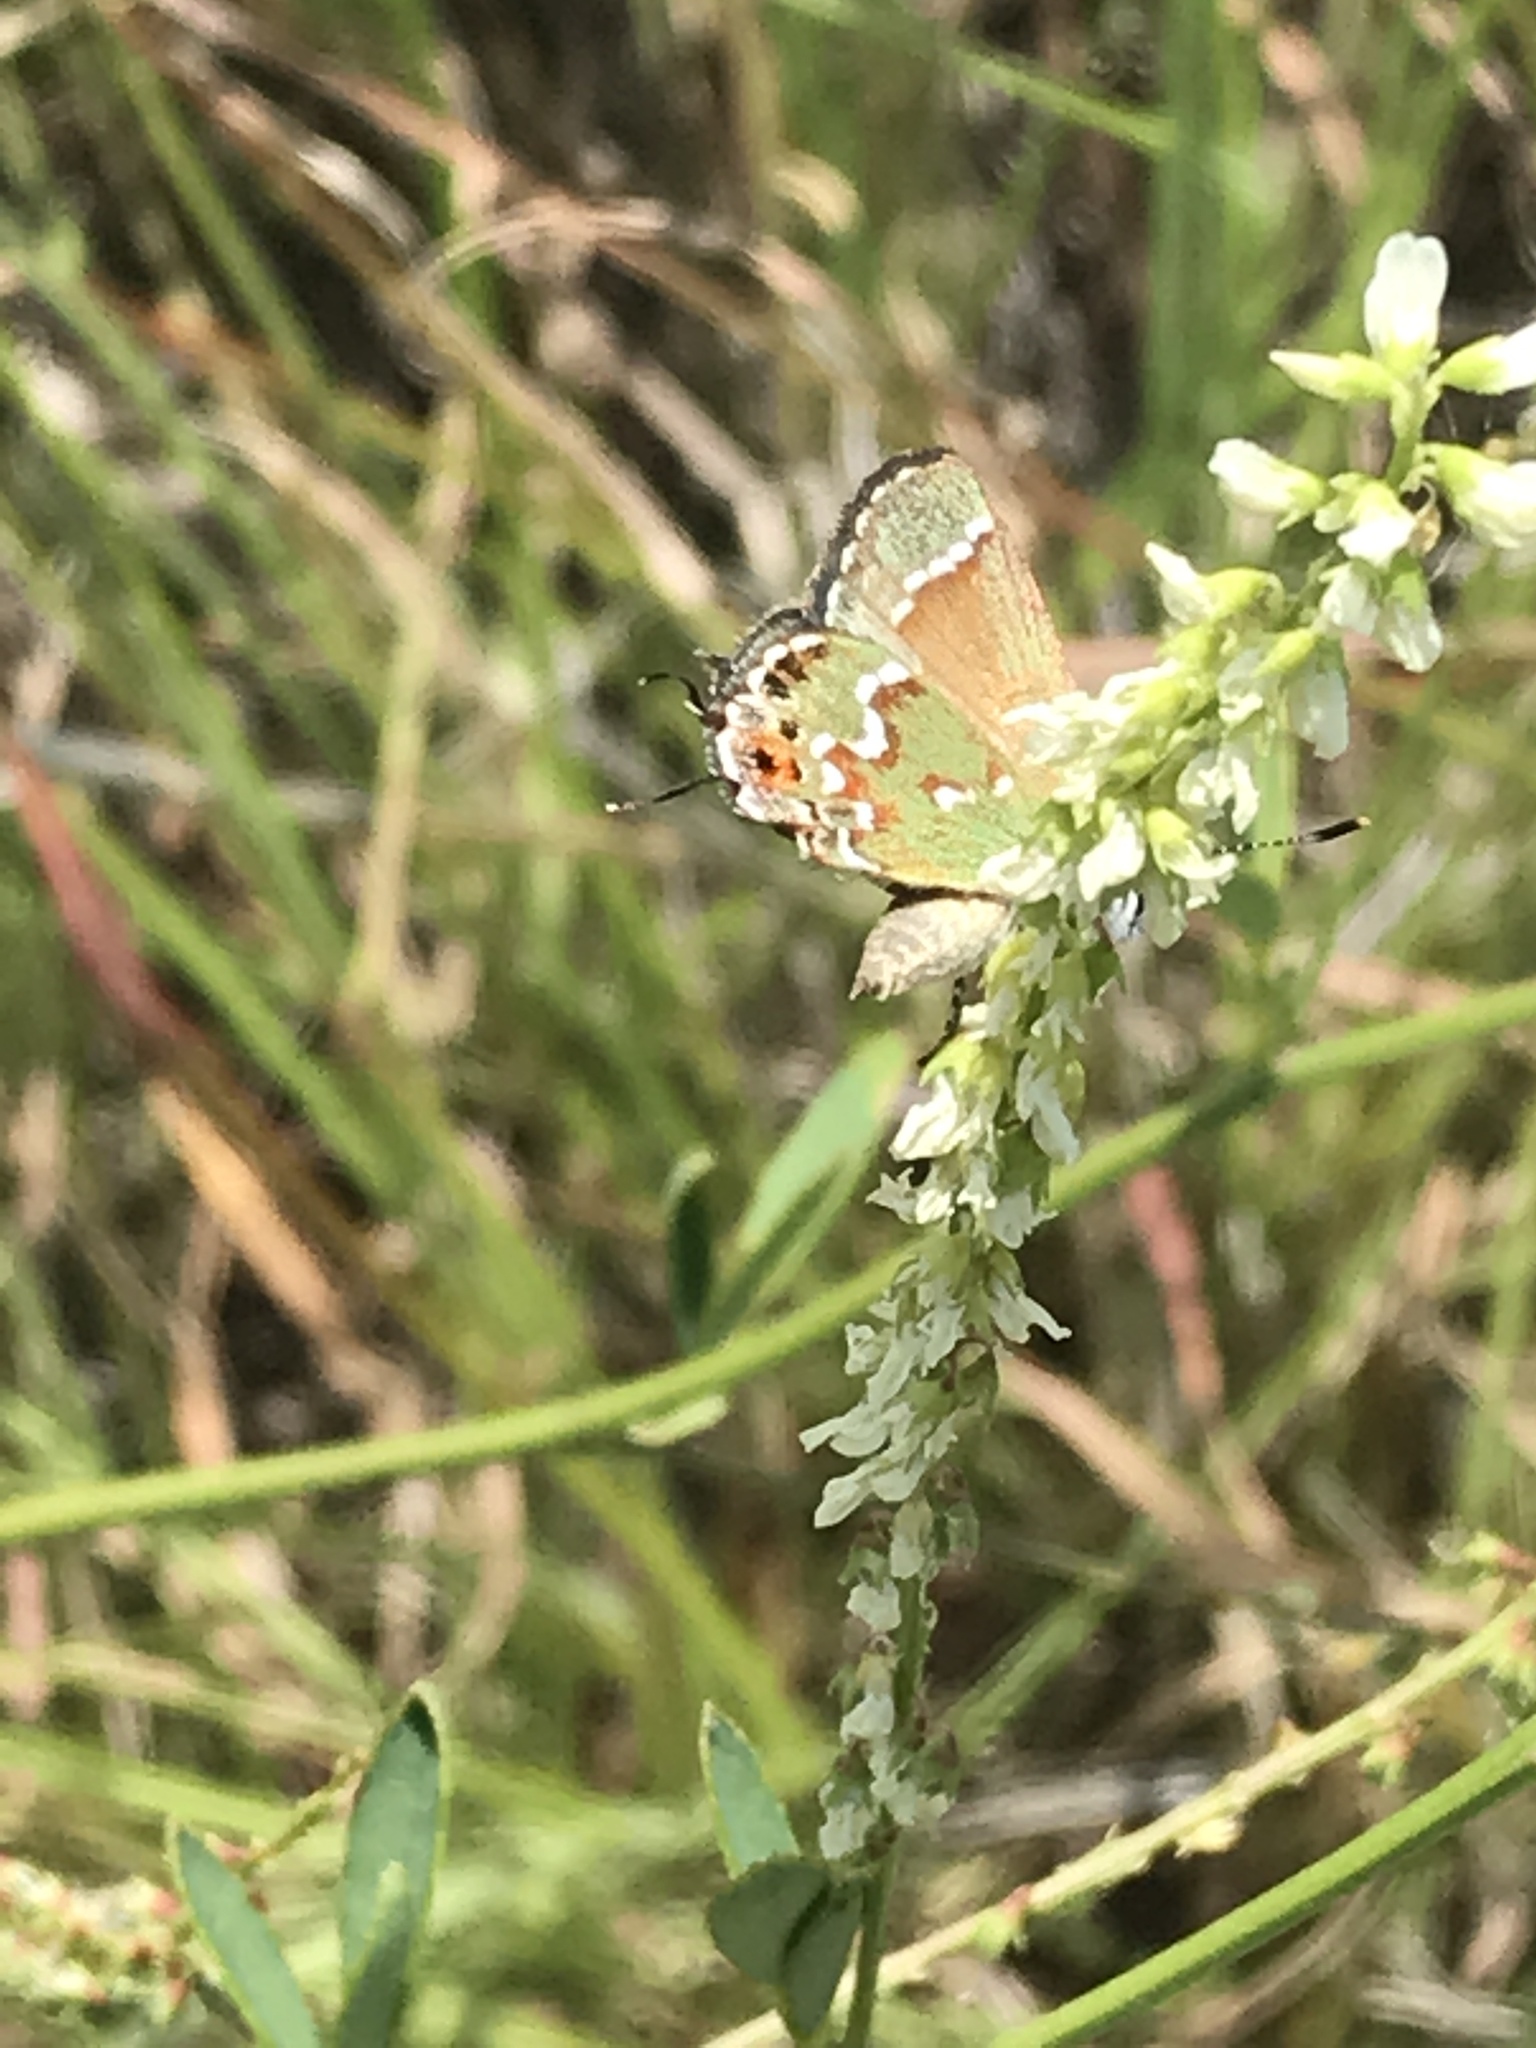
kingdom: Animalia
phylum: Arthropoda
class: Insecta
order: Lepidoptera
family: Lycaenidae
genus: Mitoura
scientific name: Mitoura gryneus
